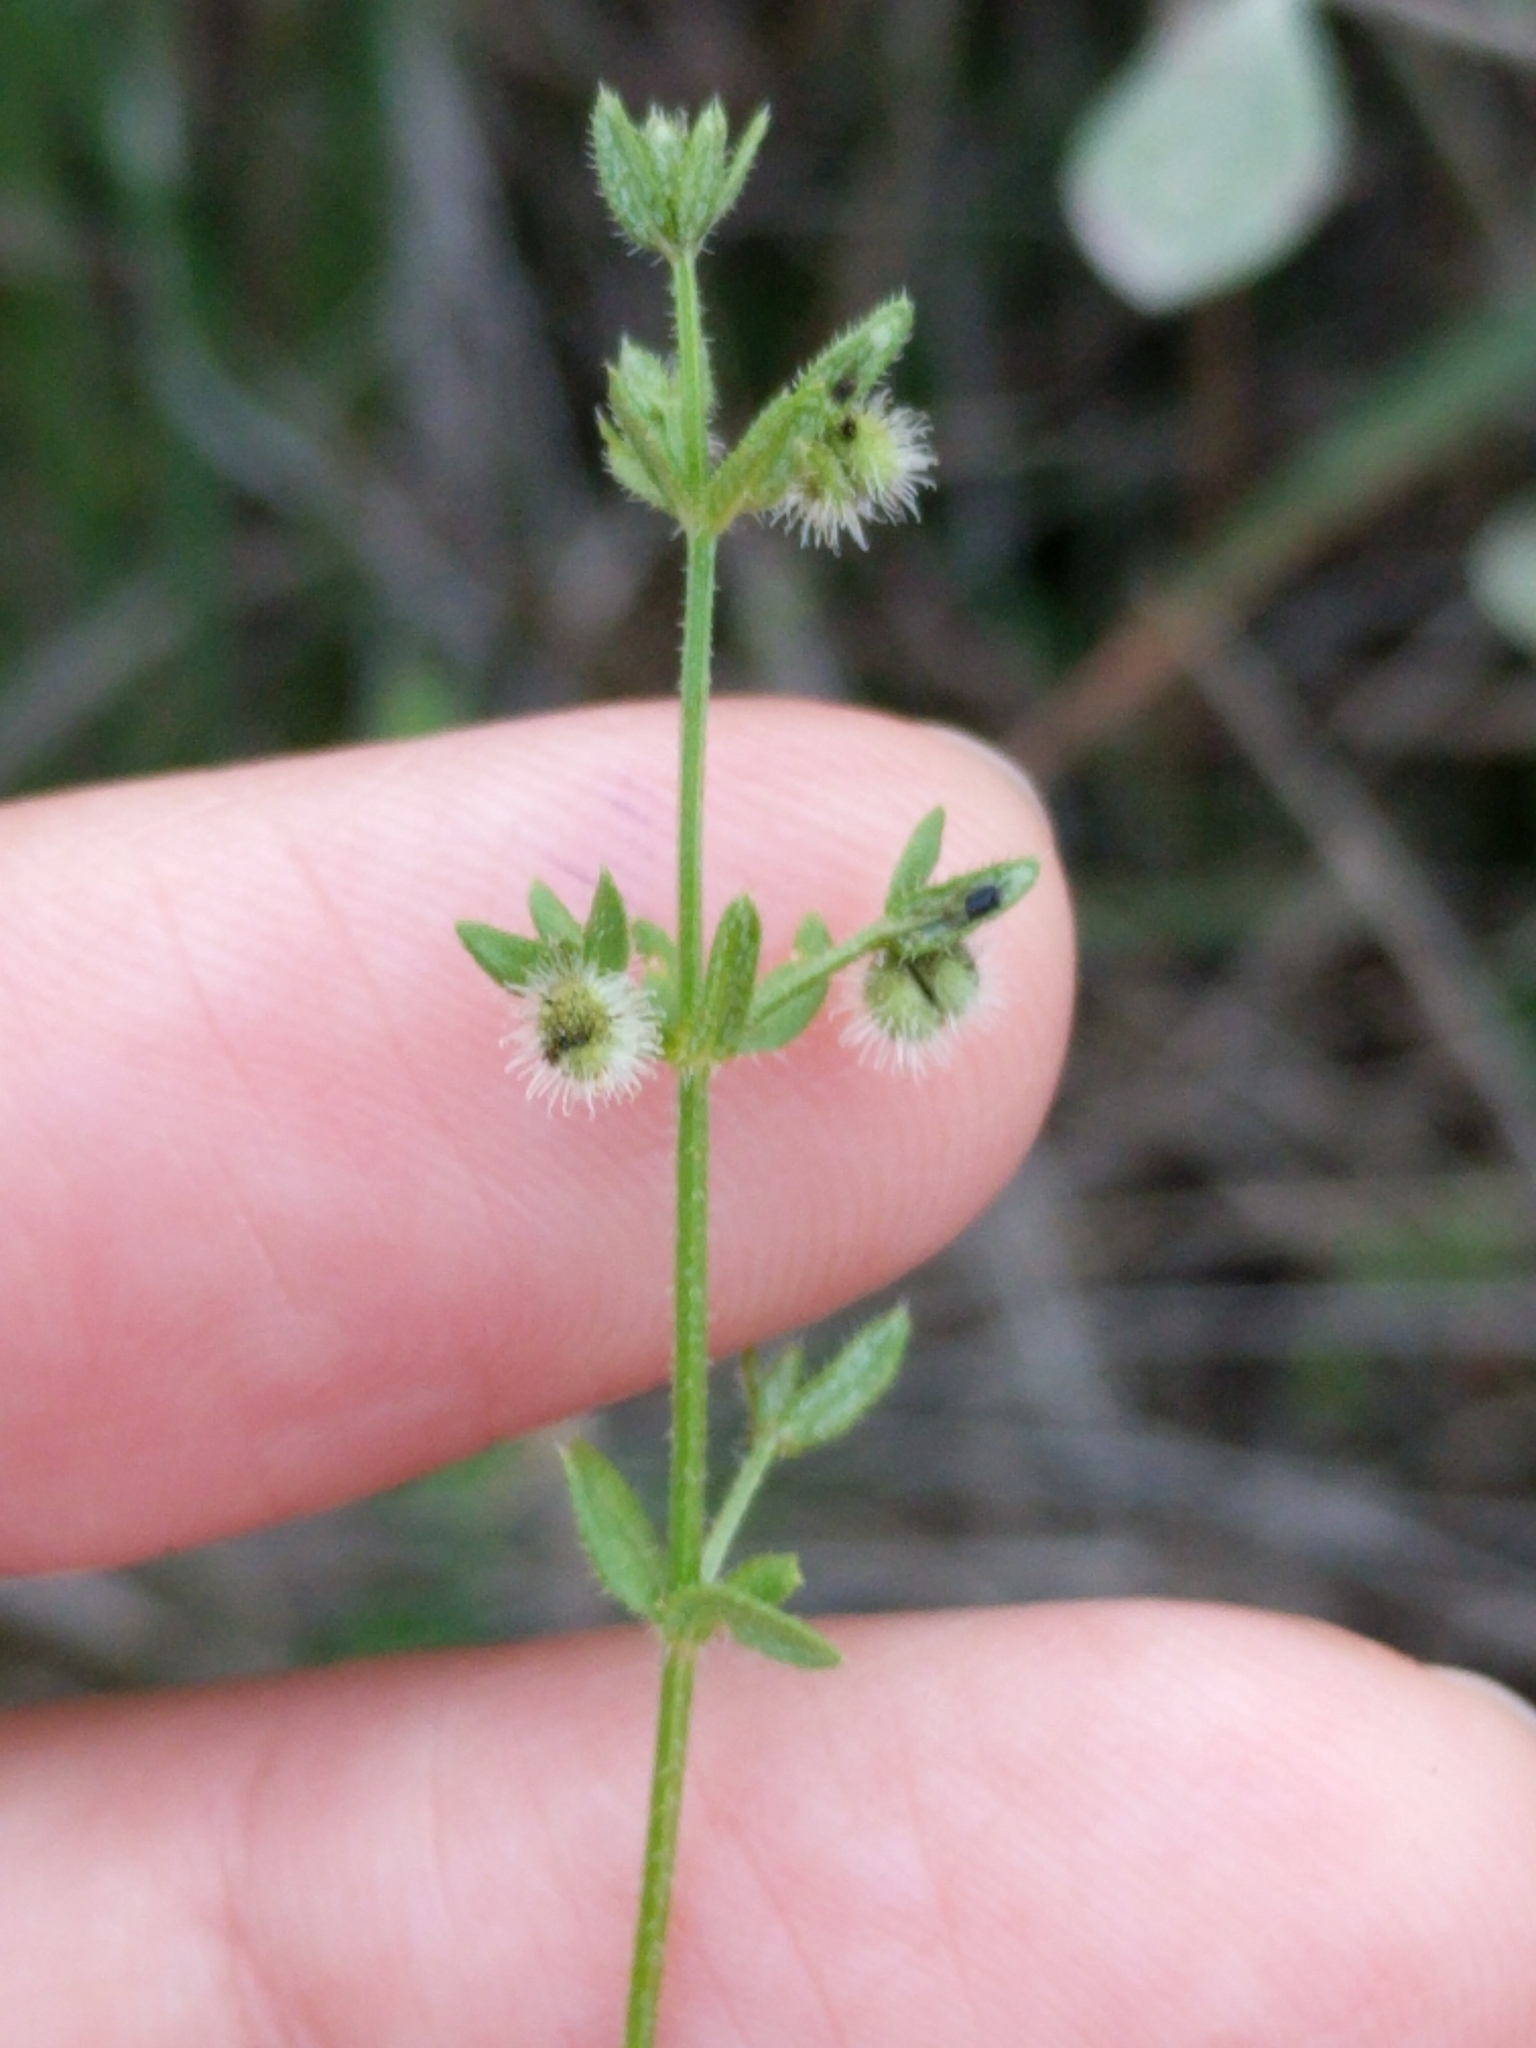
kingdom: Plantae
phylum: Tracheophyta
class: Magnoliopsida
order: Gentianales
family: Rubiaceae
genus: Galium
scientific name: Galium virgatum
